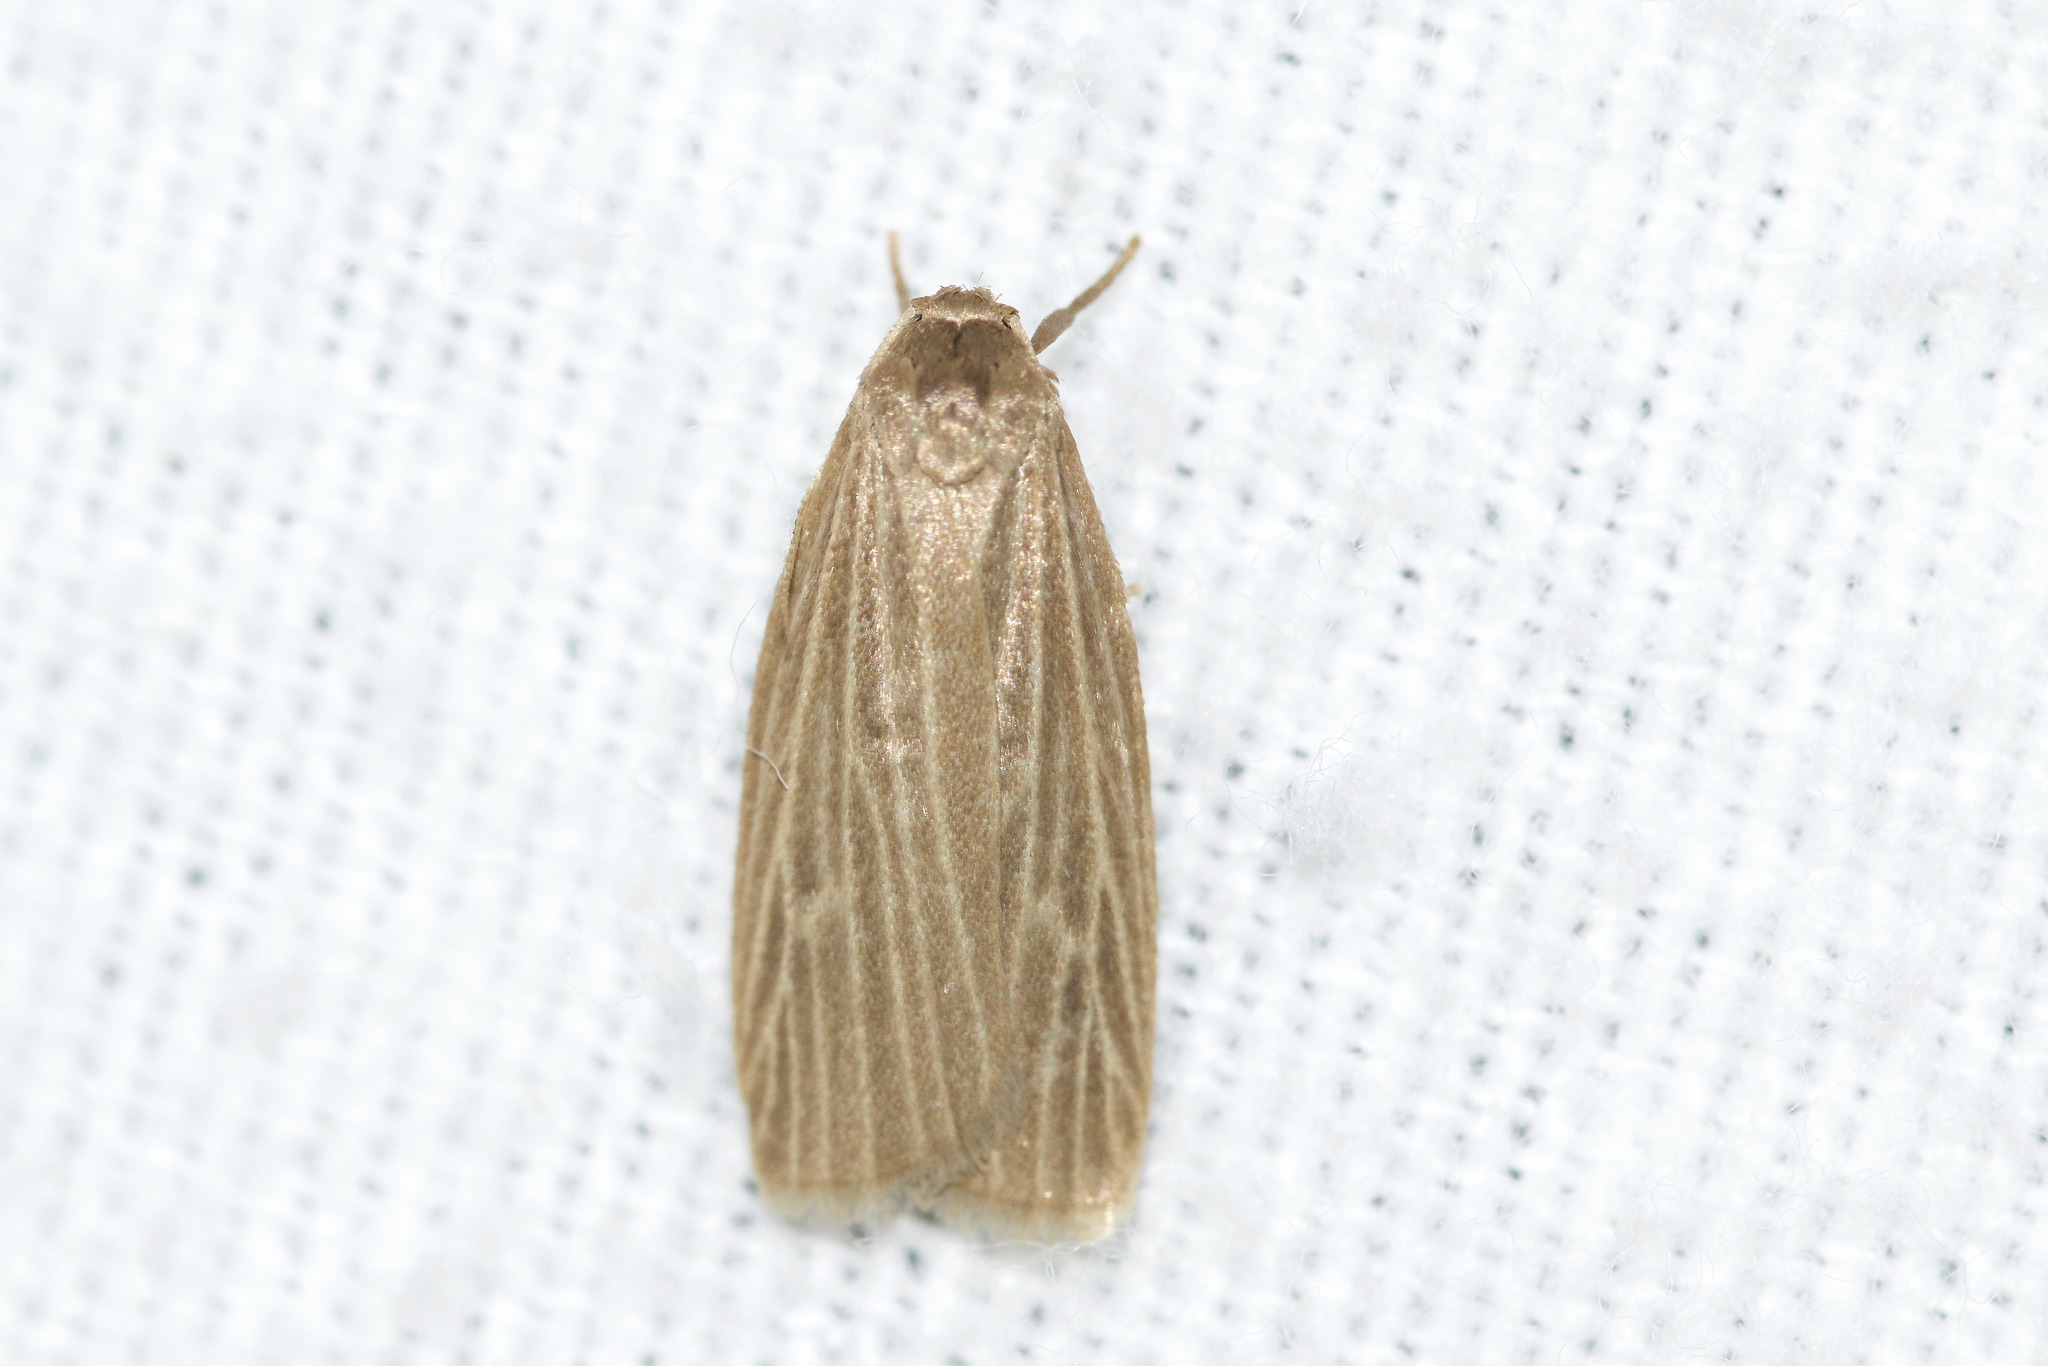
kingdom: Animalia
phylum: Arthropoda
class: Insecta
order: Lepidoptera
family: Erebidae
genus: Crambidia
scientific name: Crambidia pallida
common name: Pale lichen moth
